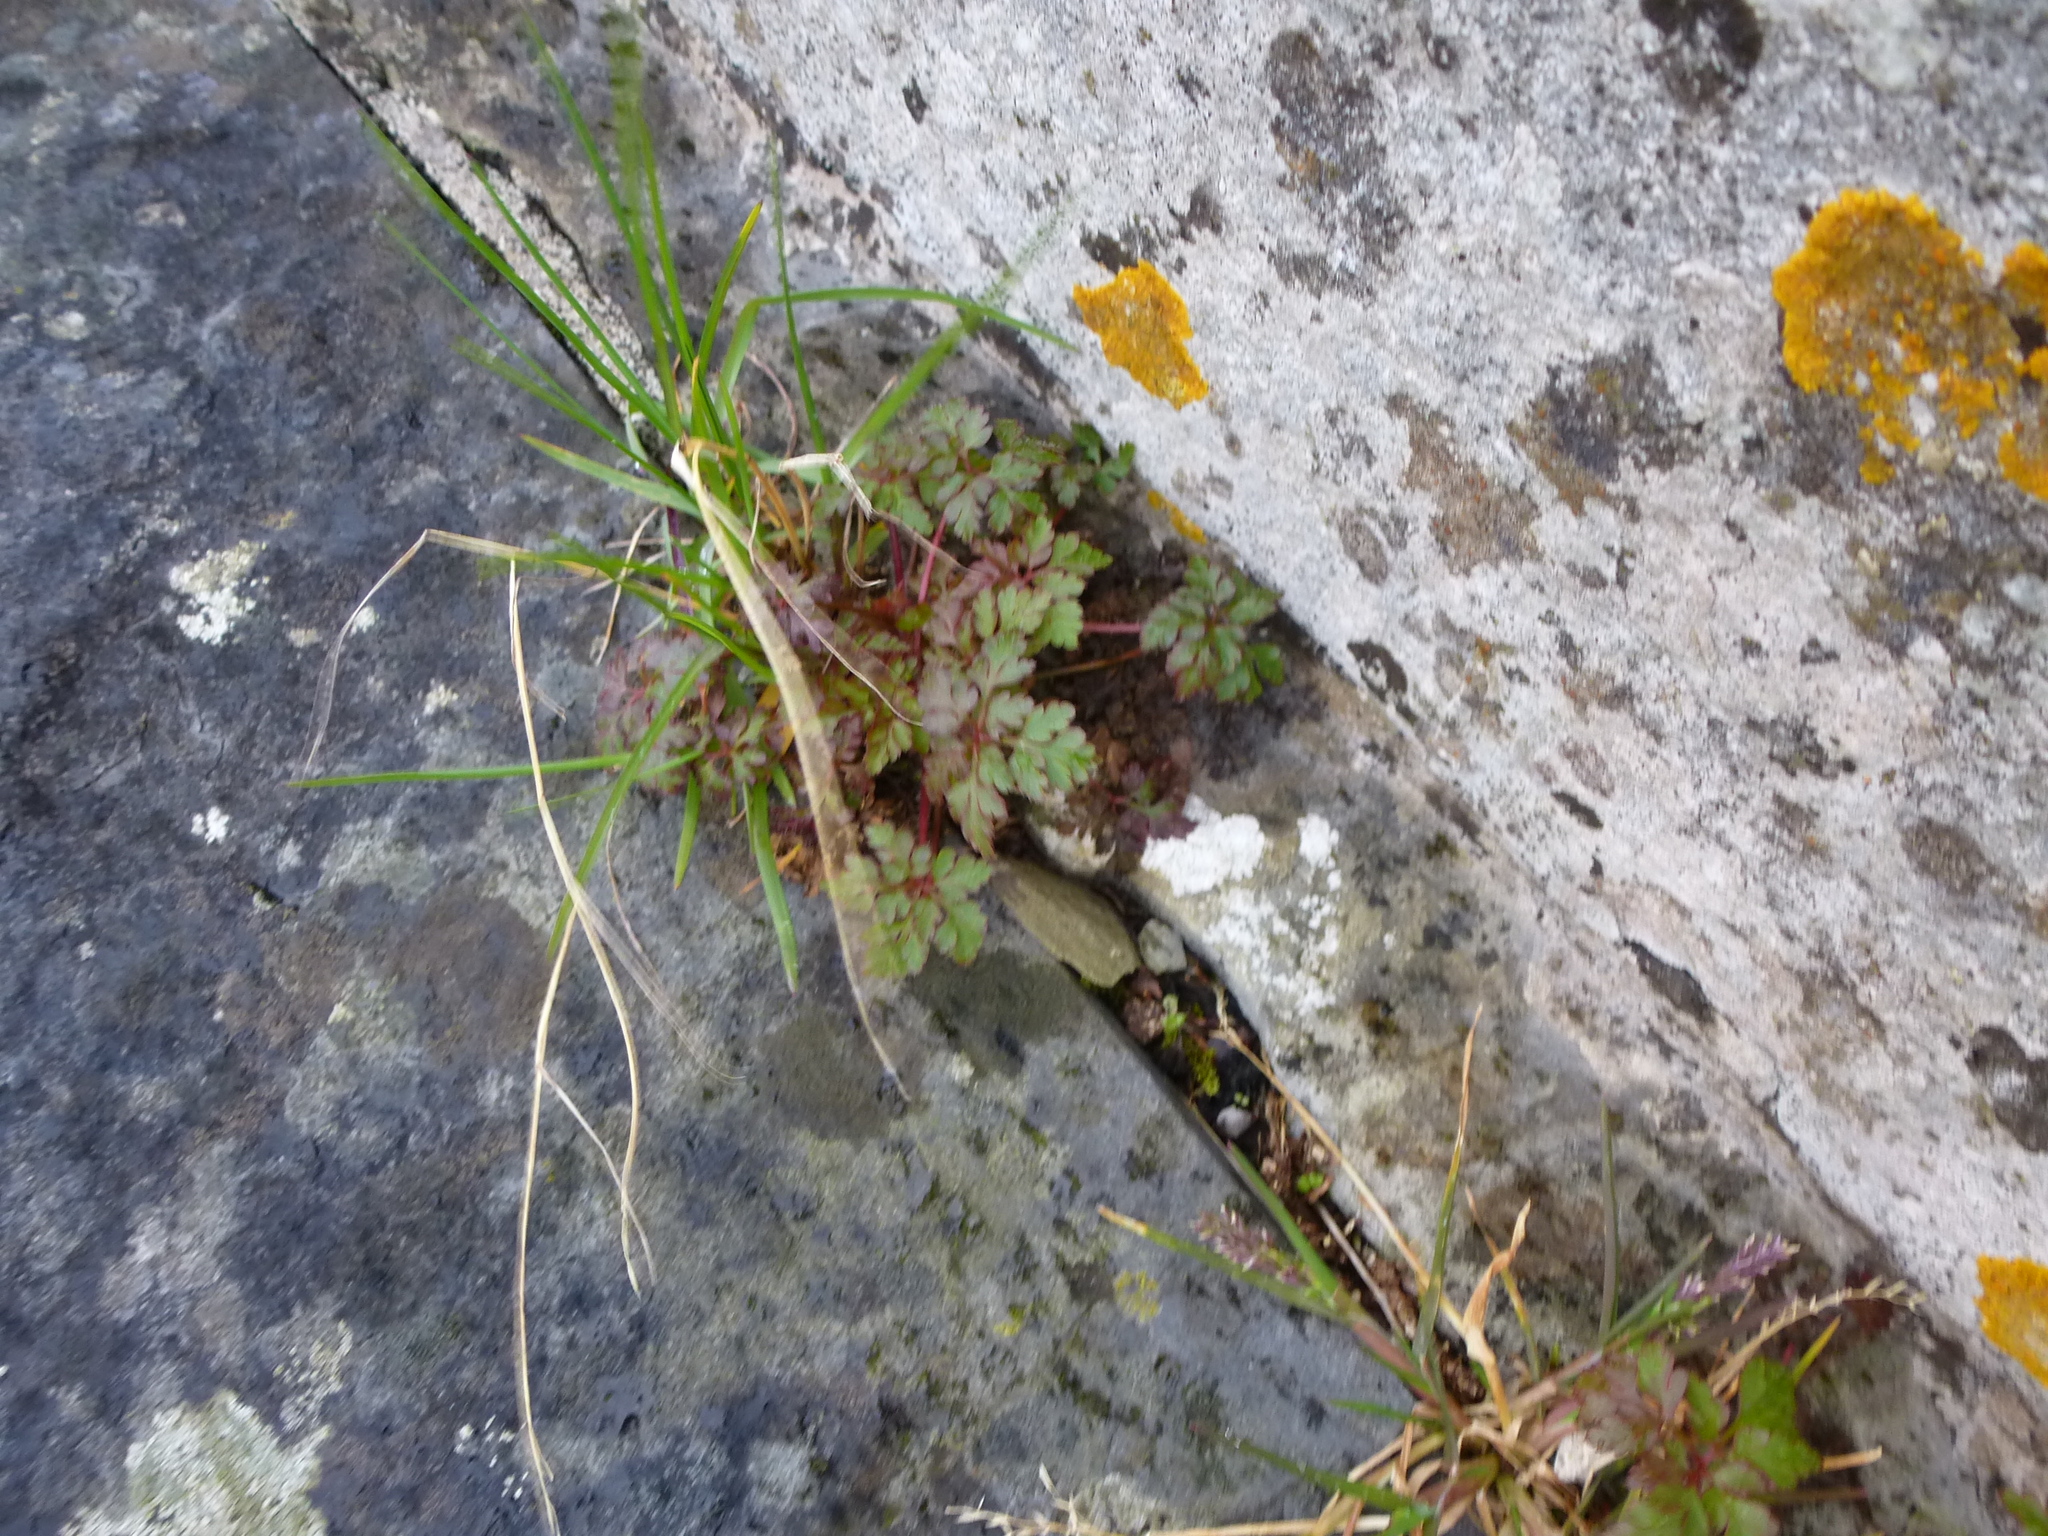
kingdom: Plantae
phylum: Tracheophyta
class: Magnoliopsida
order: Geraniales
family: Geraniaceae
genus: Geranium
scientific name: Geranium robertianum
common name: Herb-robert
